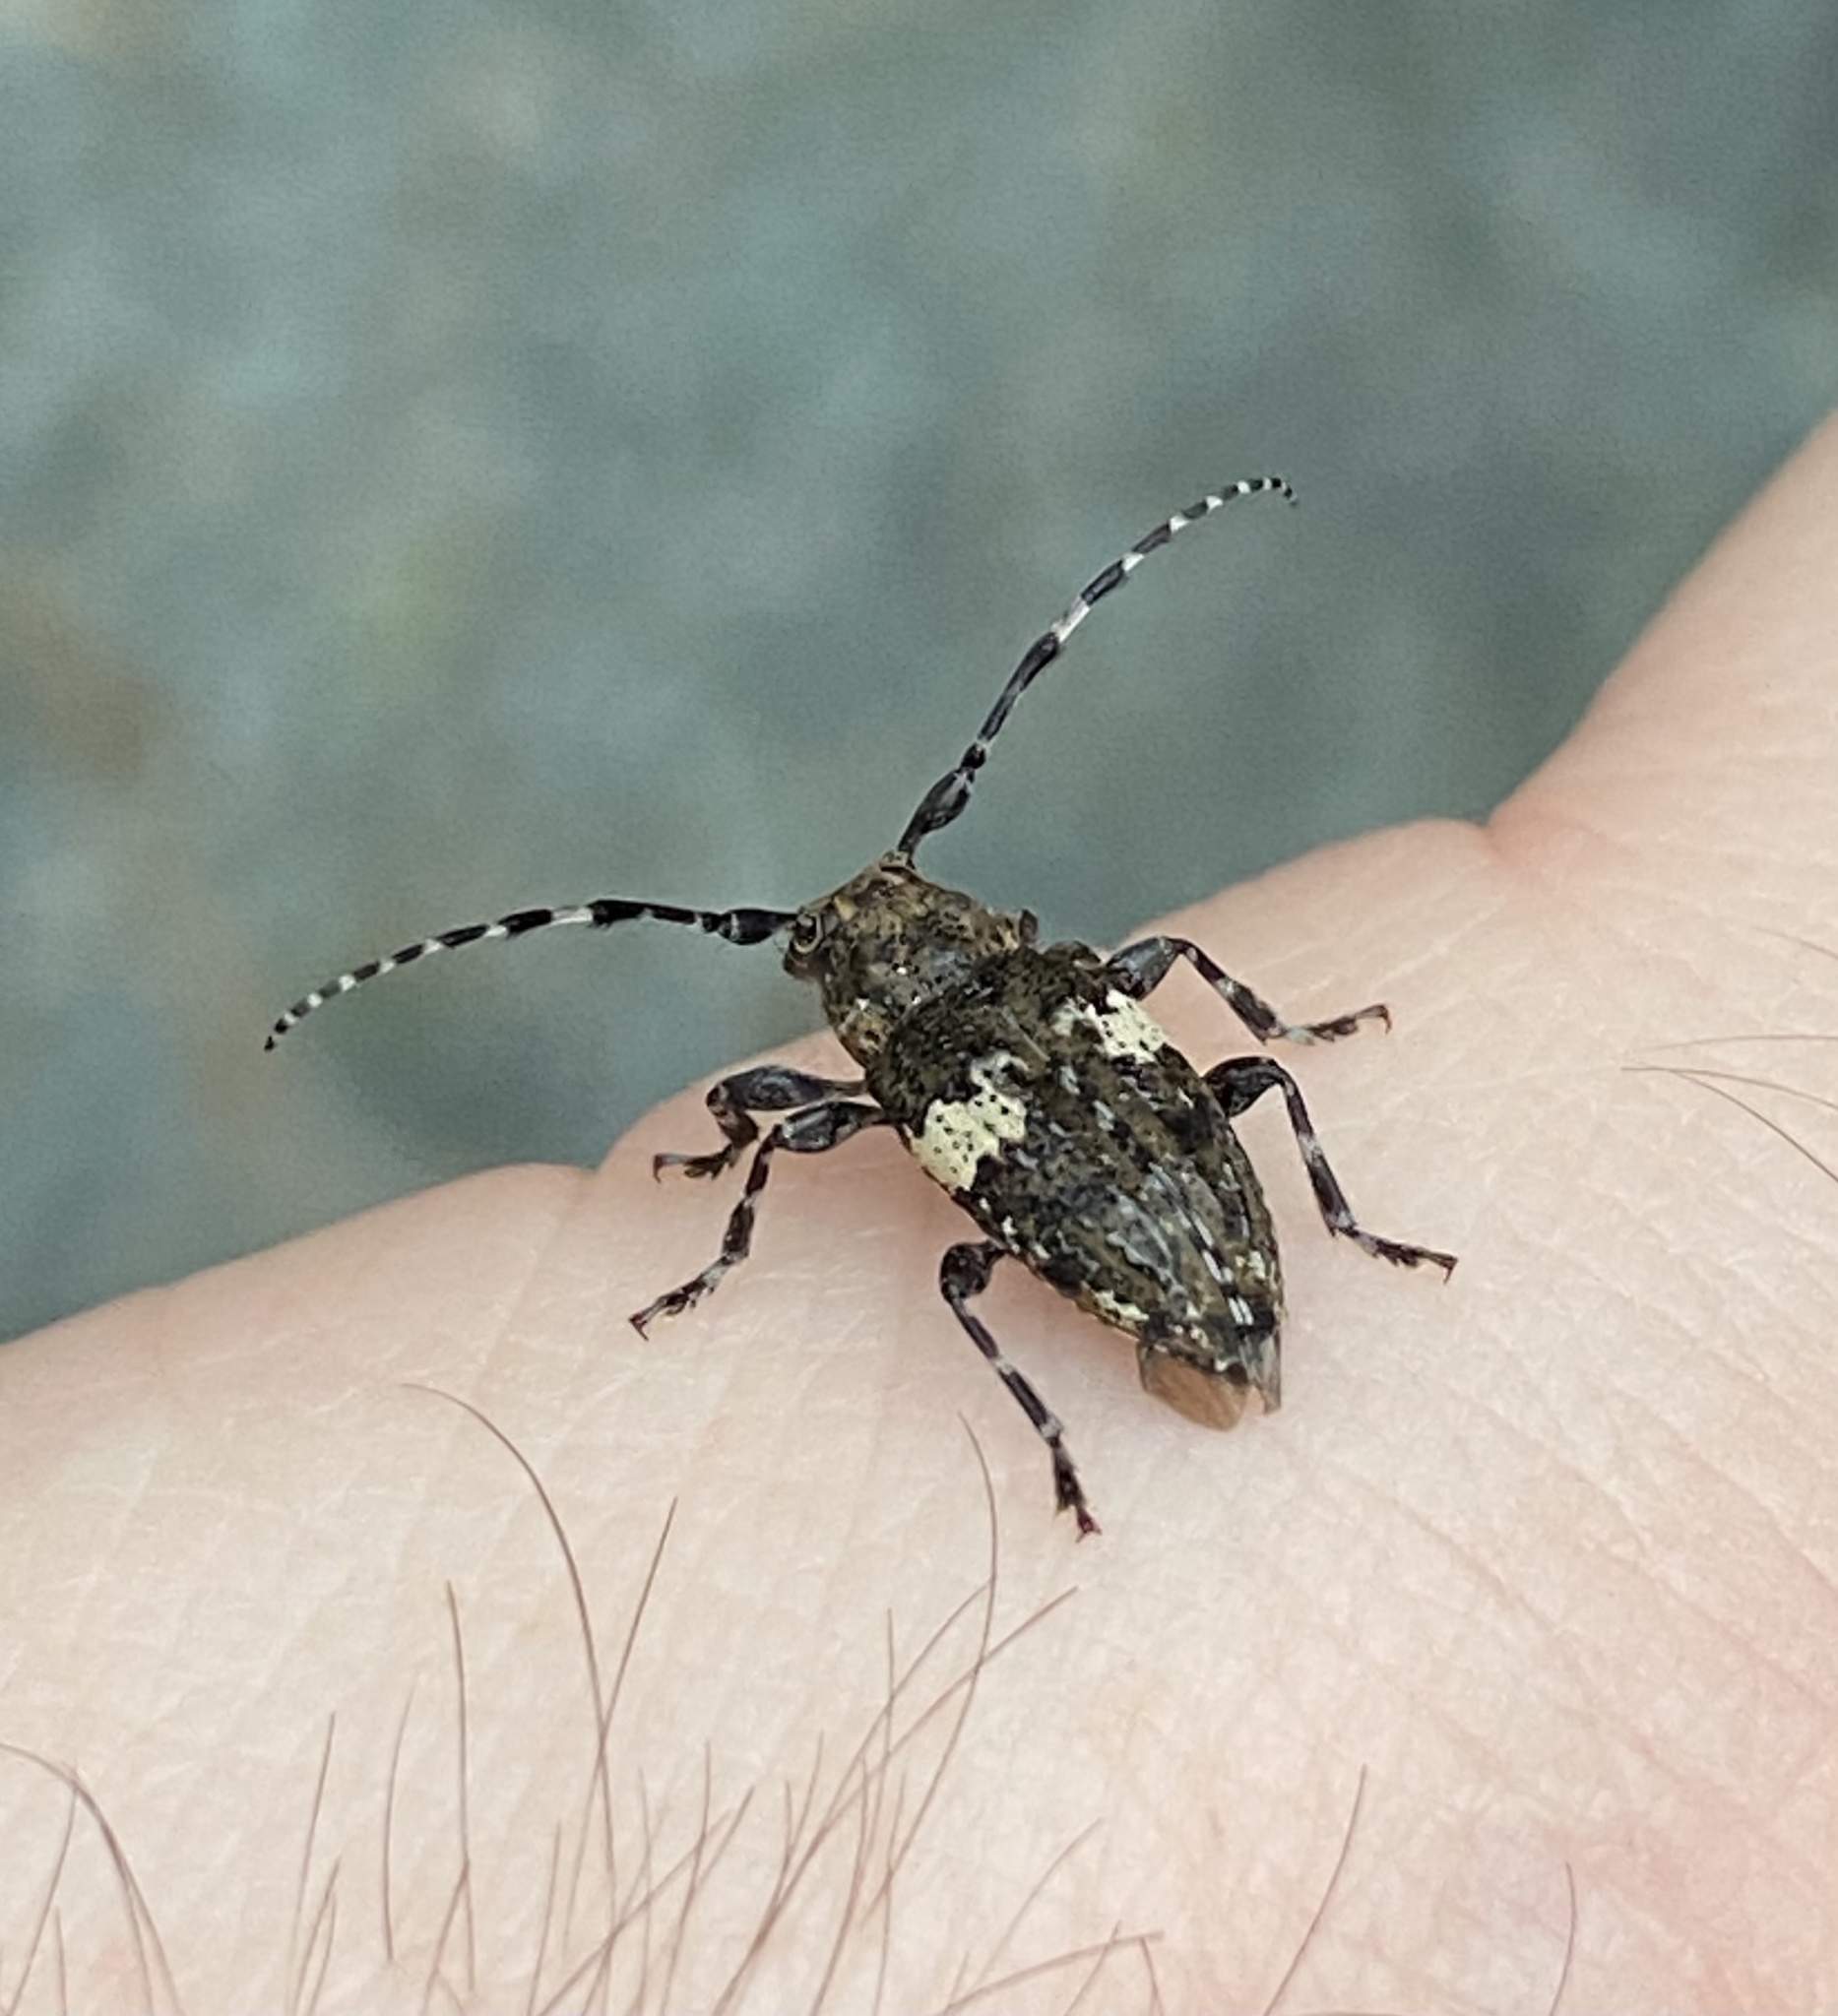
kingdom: Animalia
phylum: Arthropoda
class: Insecta
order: Coleoptera
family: Cerambycidae
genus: Acanthoderes
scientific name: Acanthoderes quadrigibba
